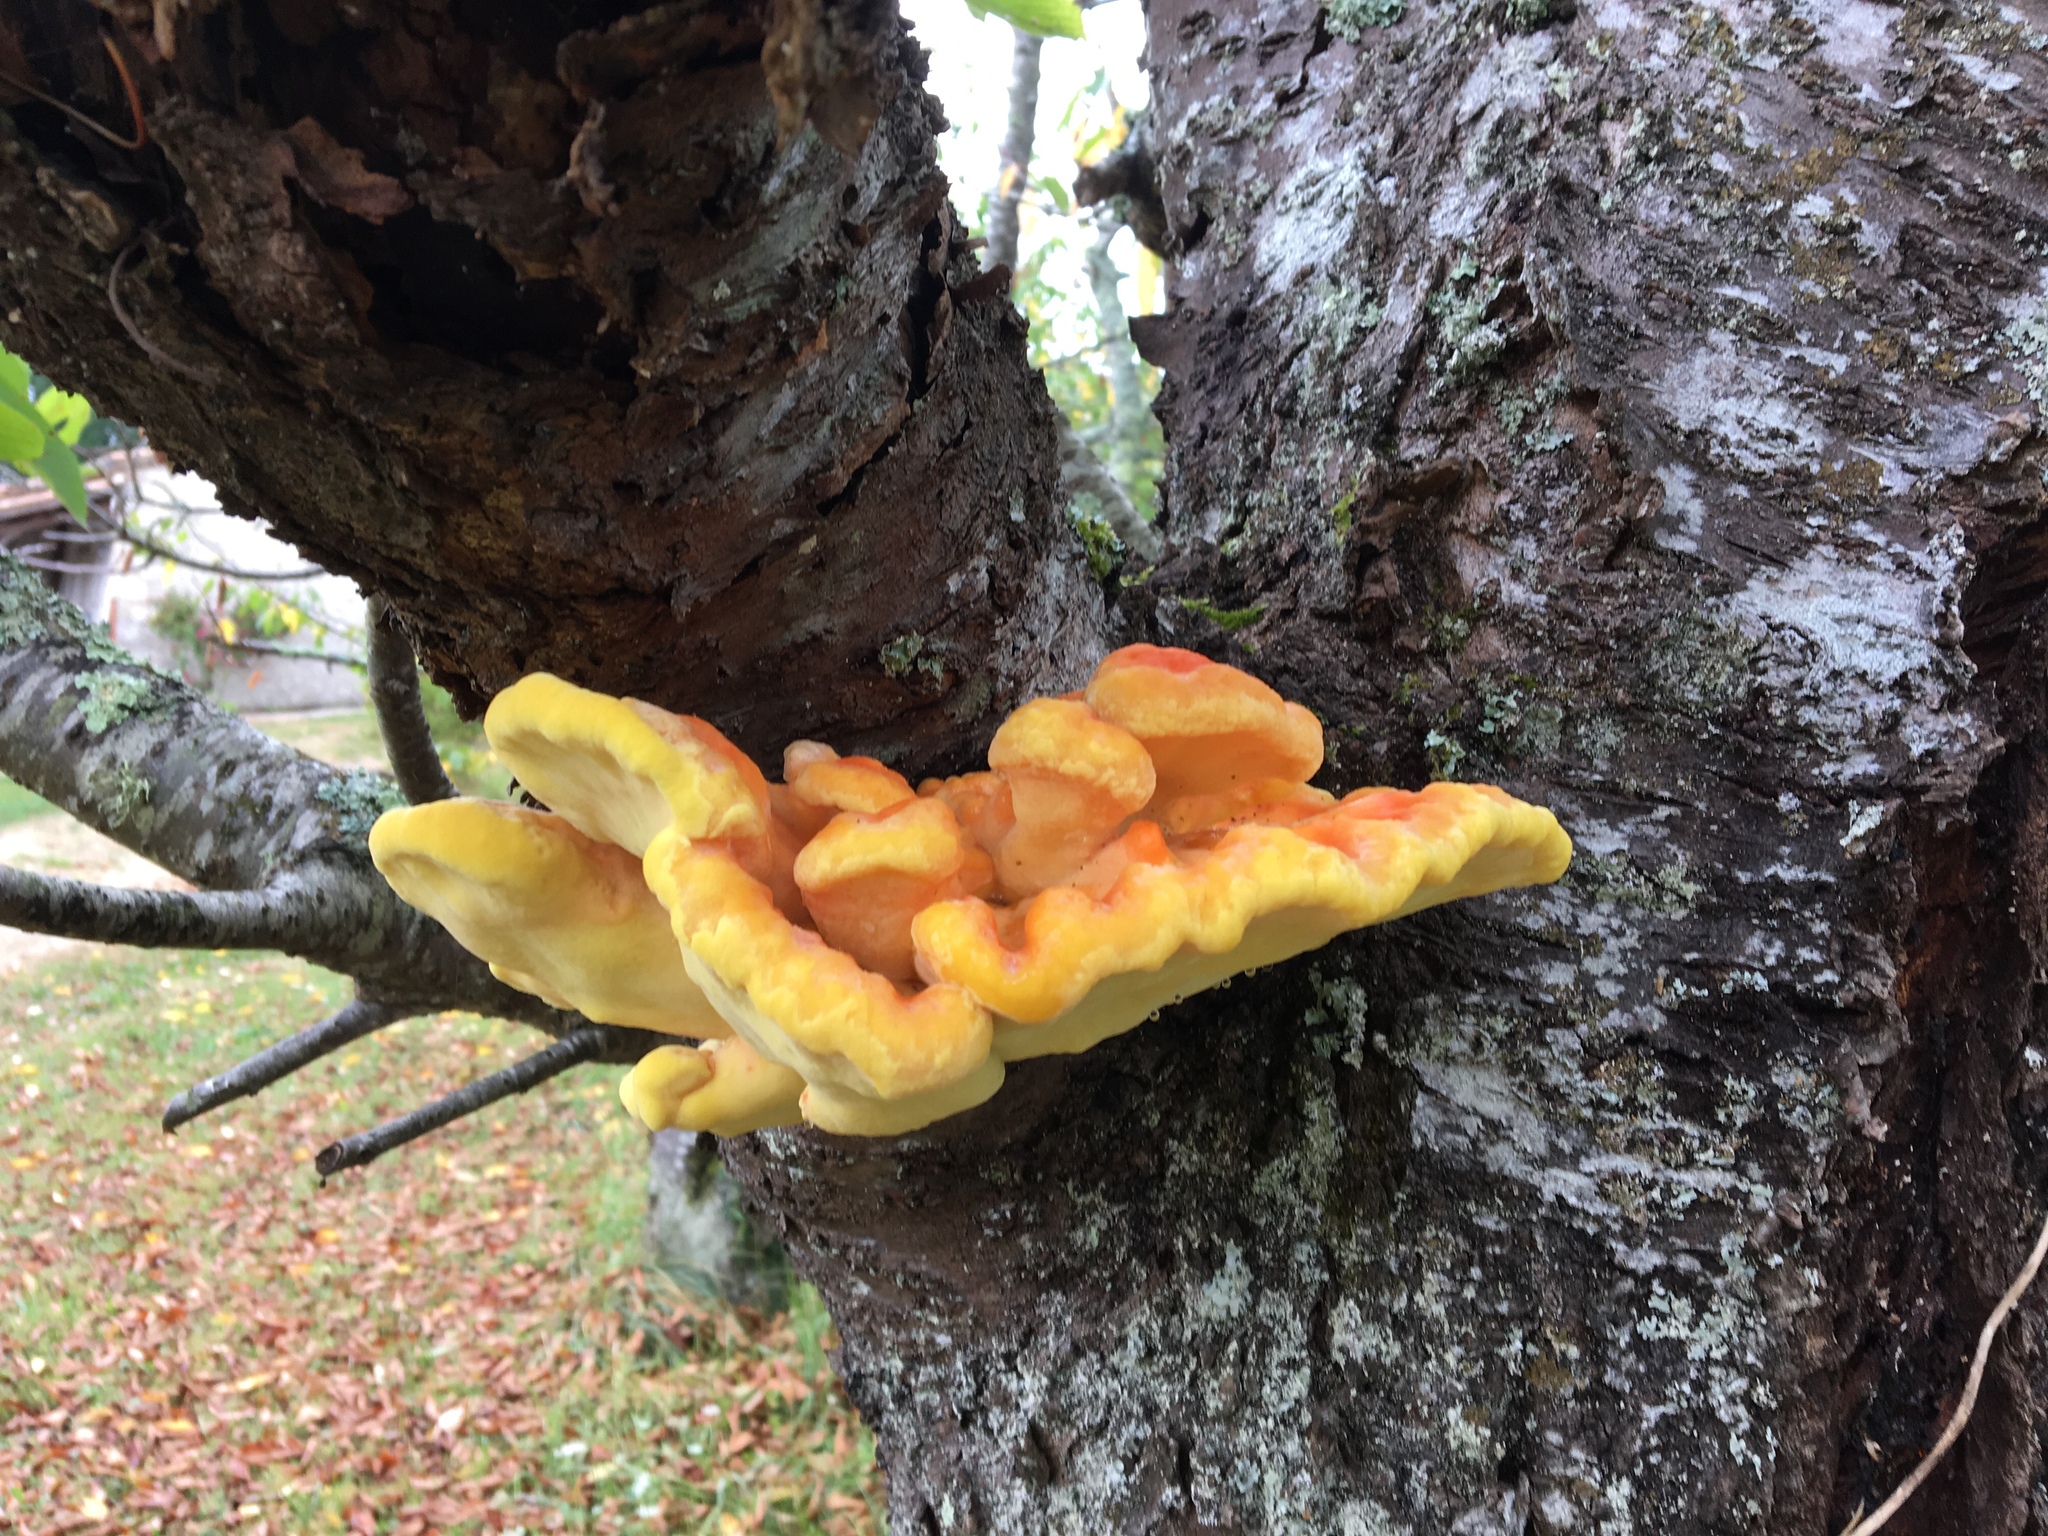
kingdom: Fungi
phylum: Basidiomycota
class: Agaricomycetes
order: Polyporales
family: Laetiporaceae
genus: Laetiporus
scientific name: Laetiporus sulphureus
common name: Chicken of the woods
